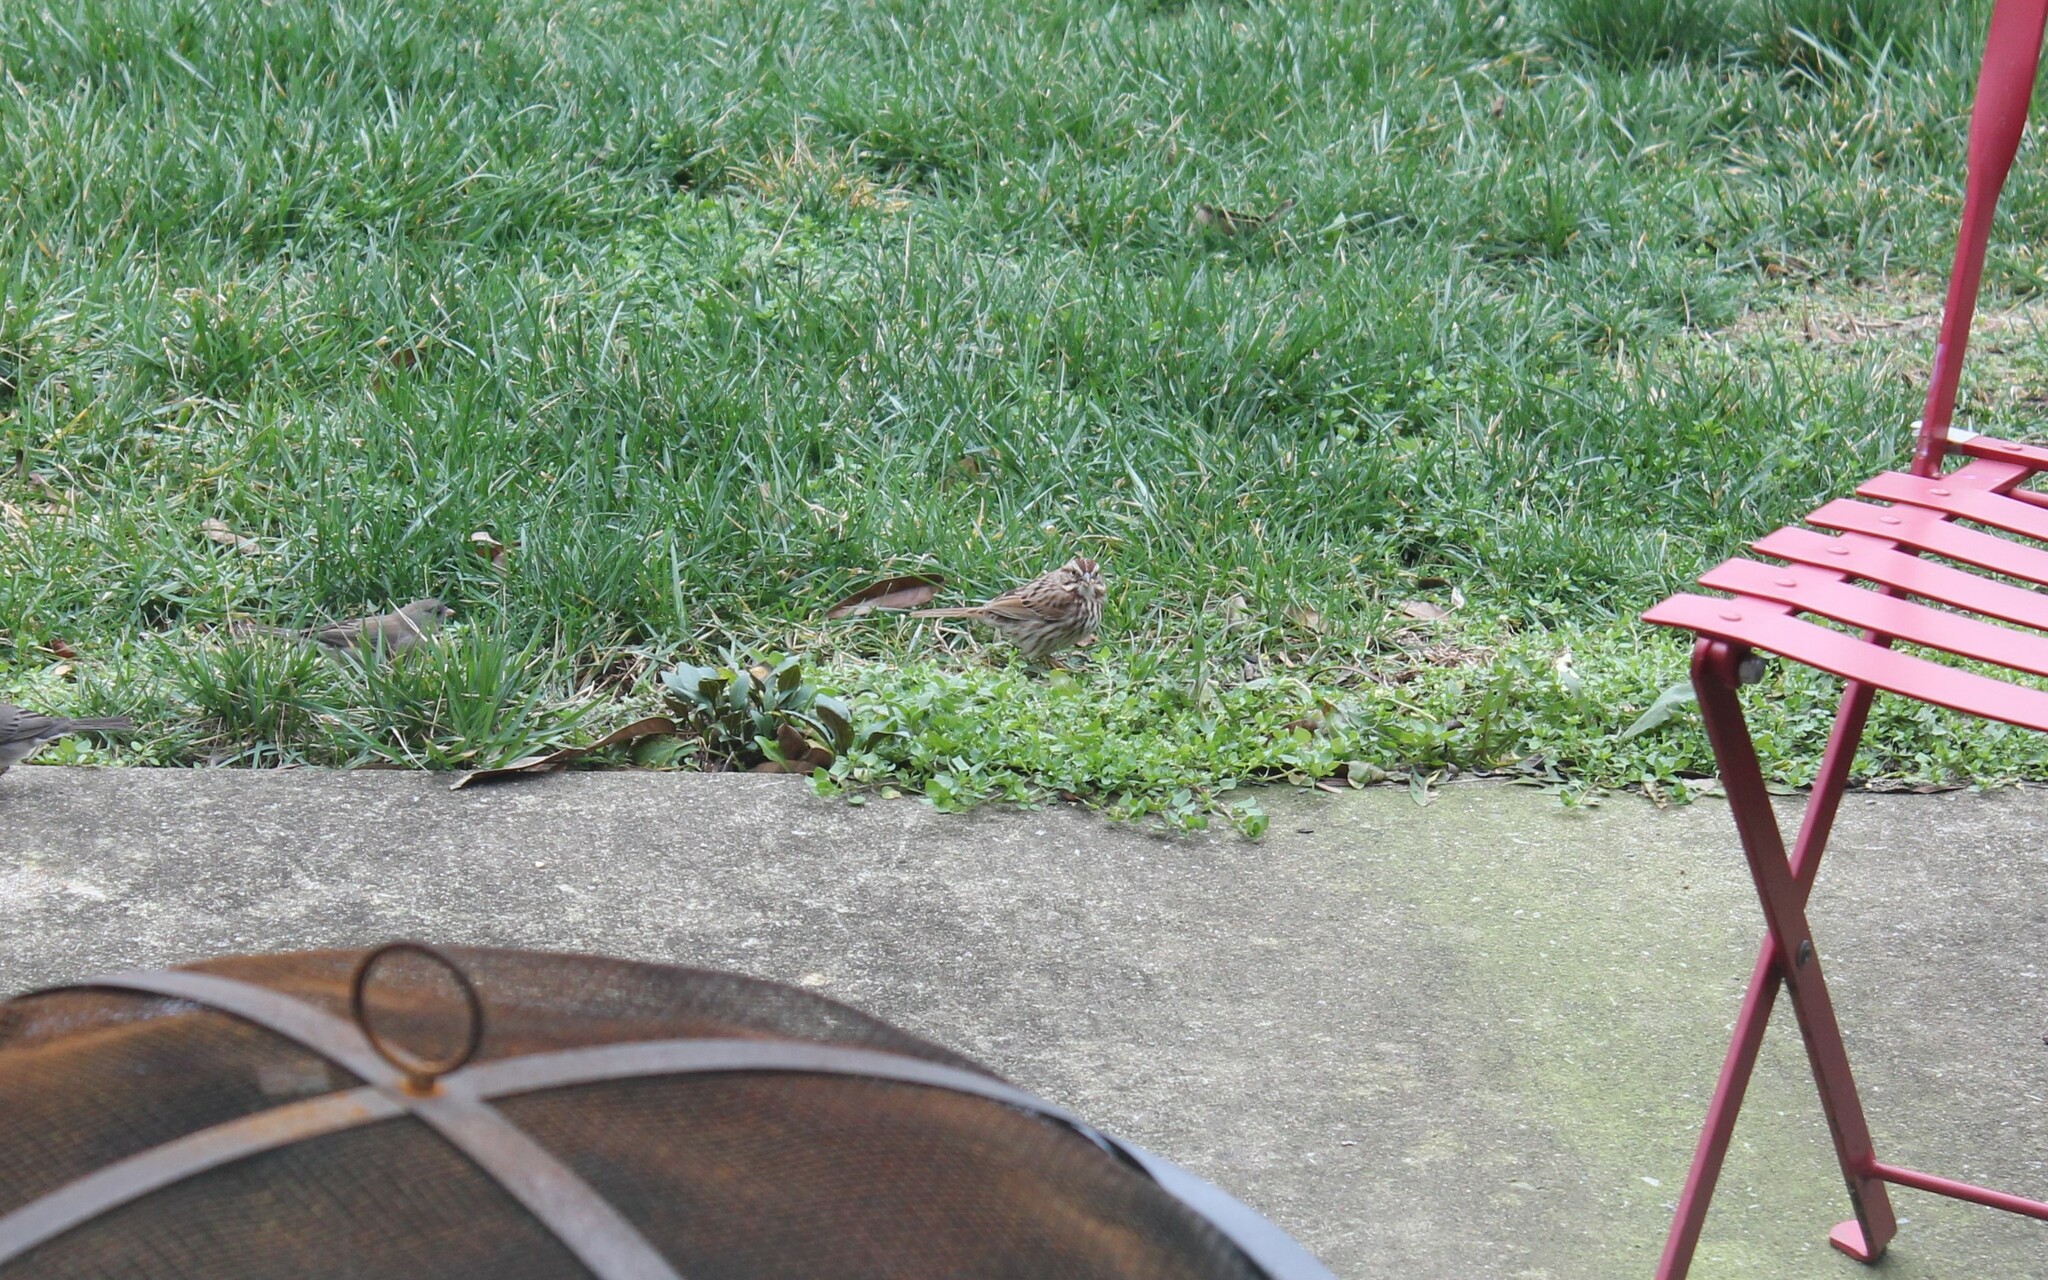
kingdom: Animalia
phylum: Chordata
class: Aves
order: Passeriformes
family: Passerellidae
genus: Melospiza
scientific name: Melospiza melodia
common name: Song sparrow
